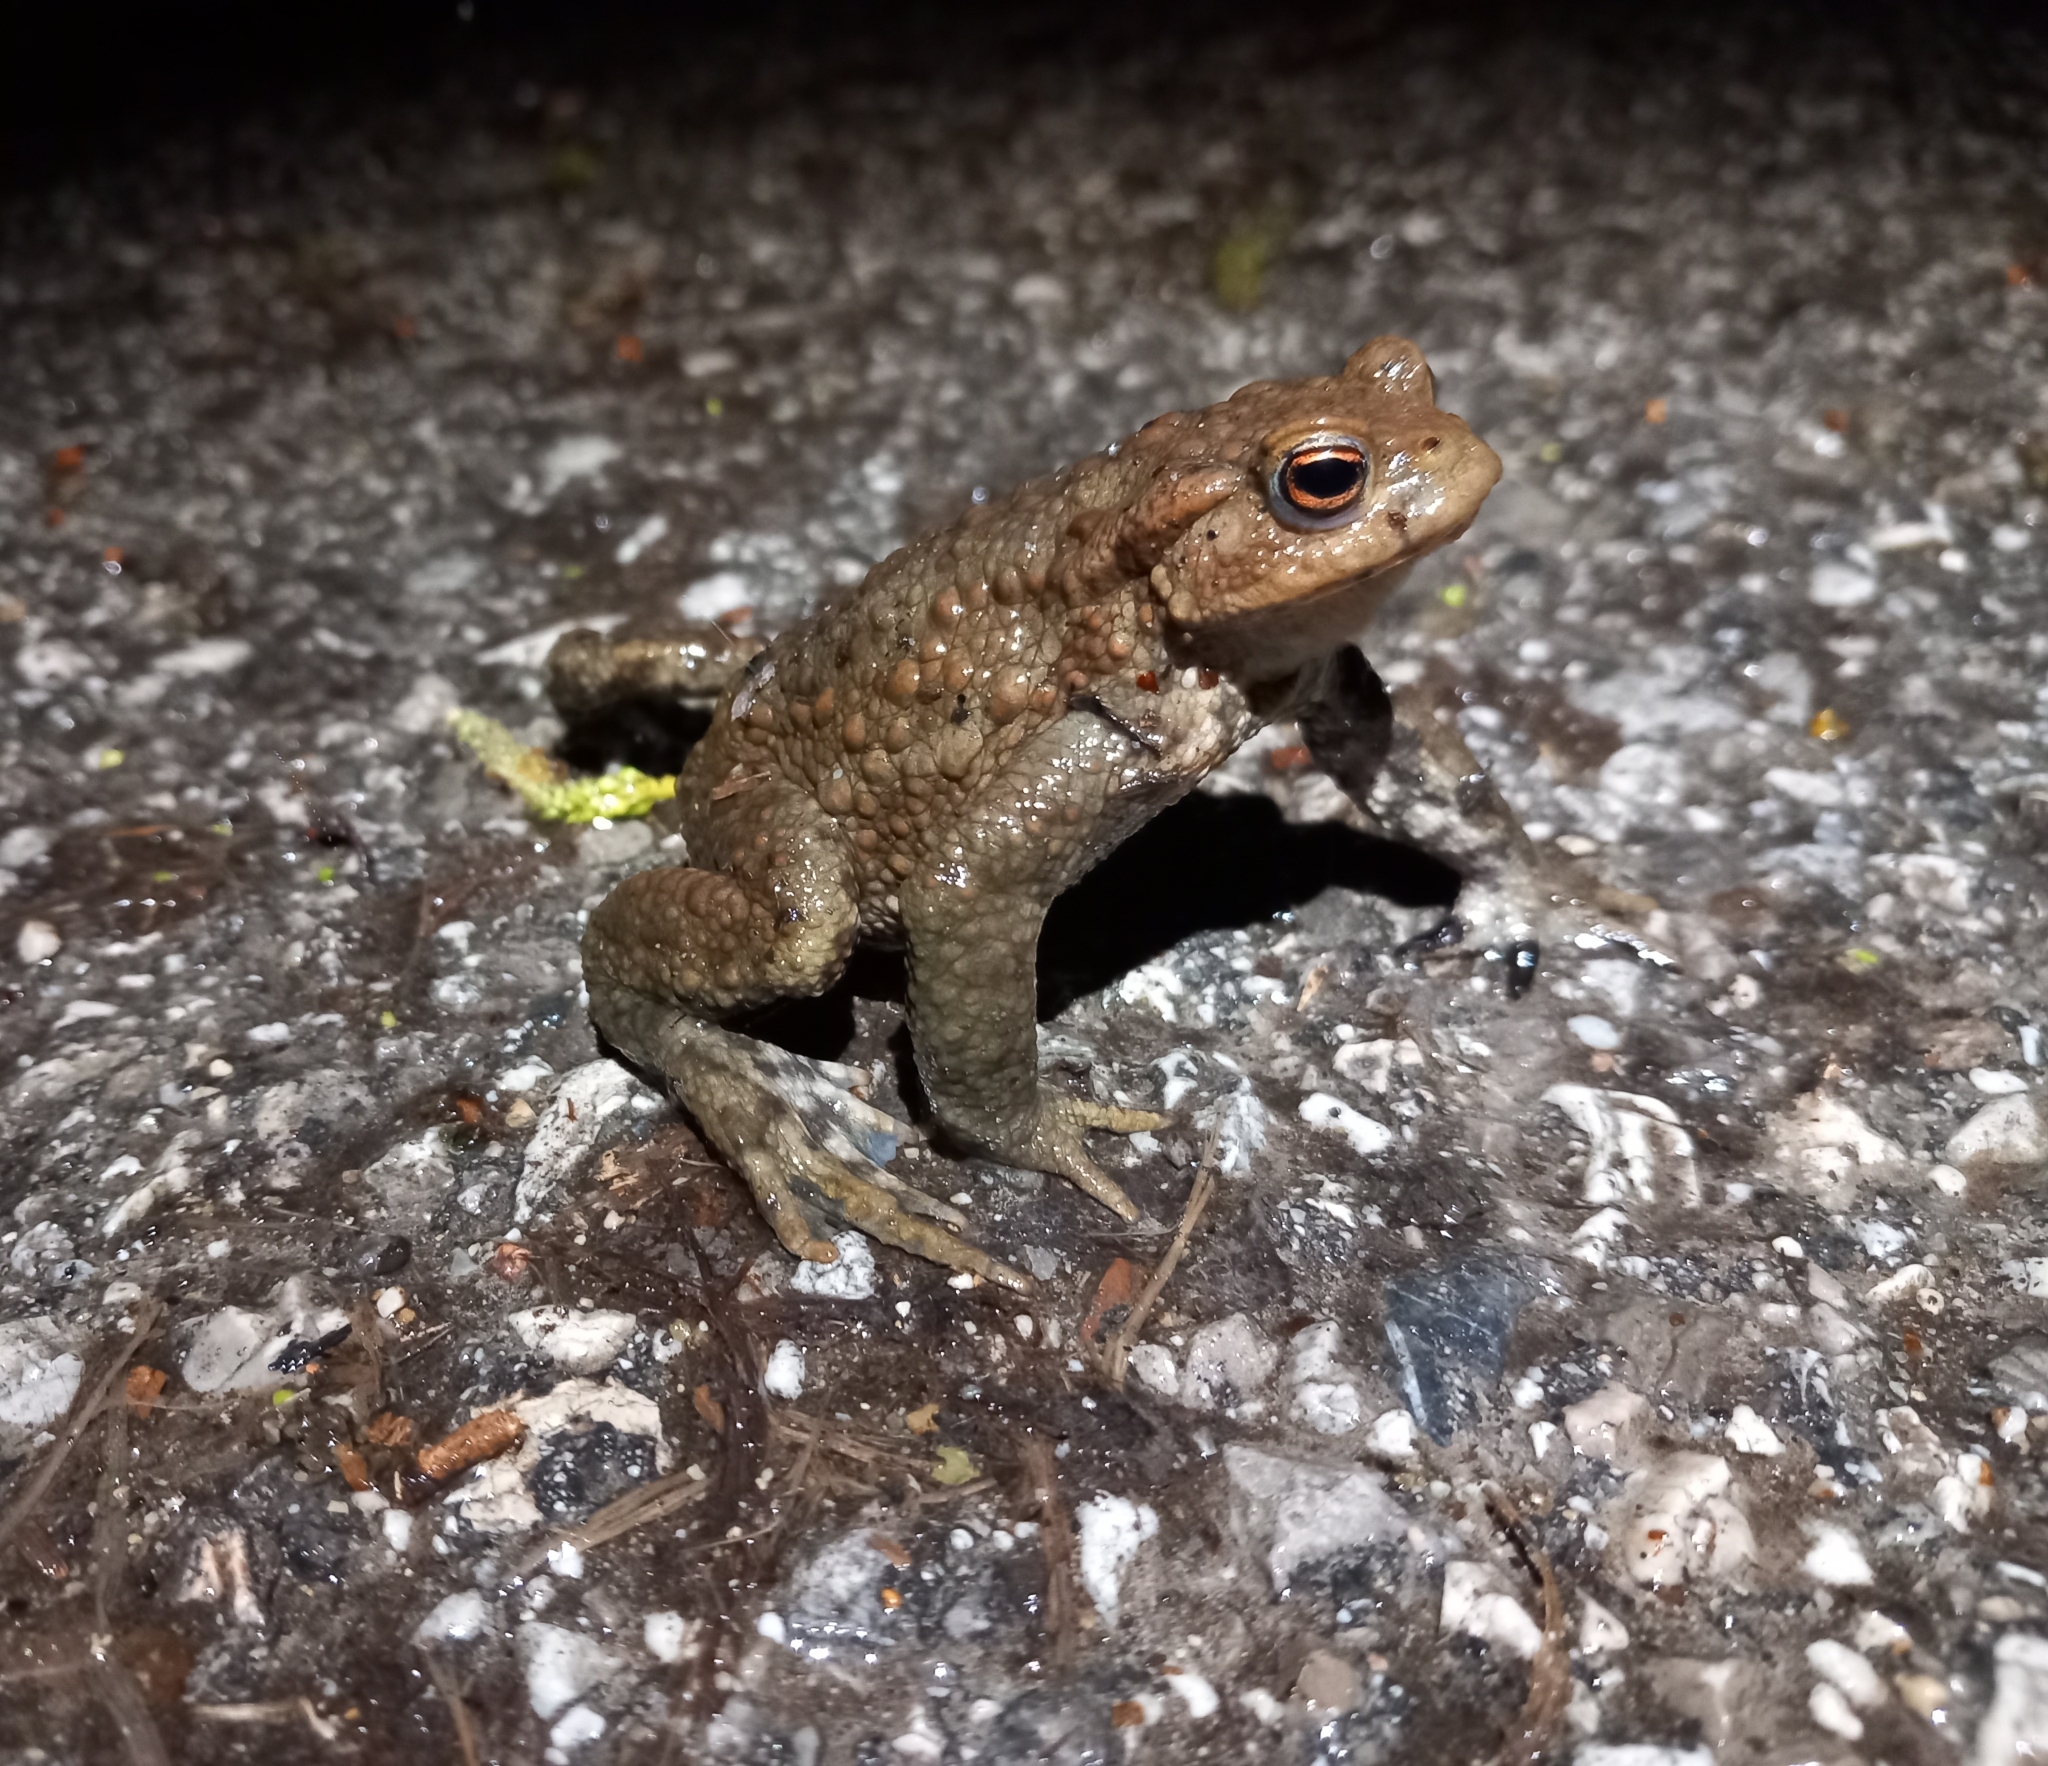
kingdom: Animalia
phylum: Chordata
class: Amphibia
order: Anura
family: Bufonidae
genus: Bufo
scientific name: Bufo bufo
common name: Common toad
